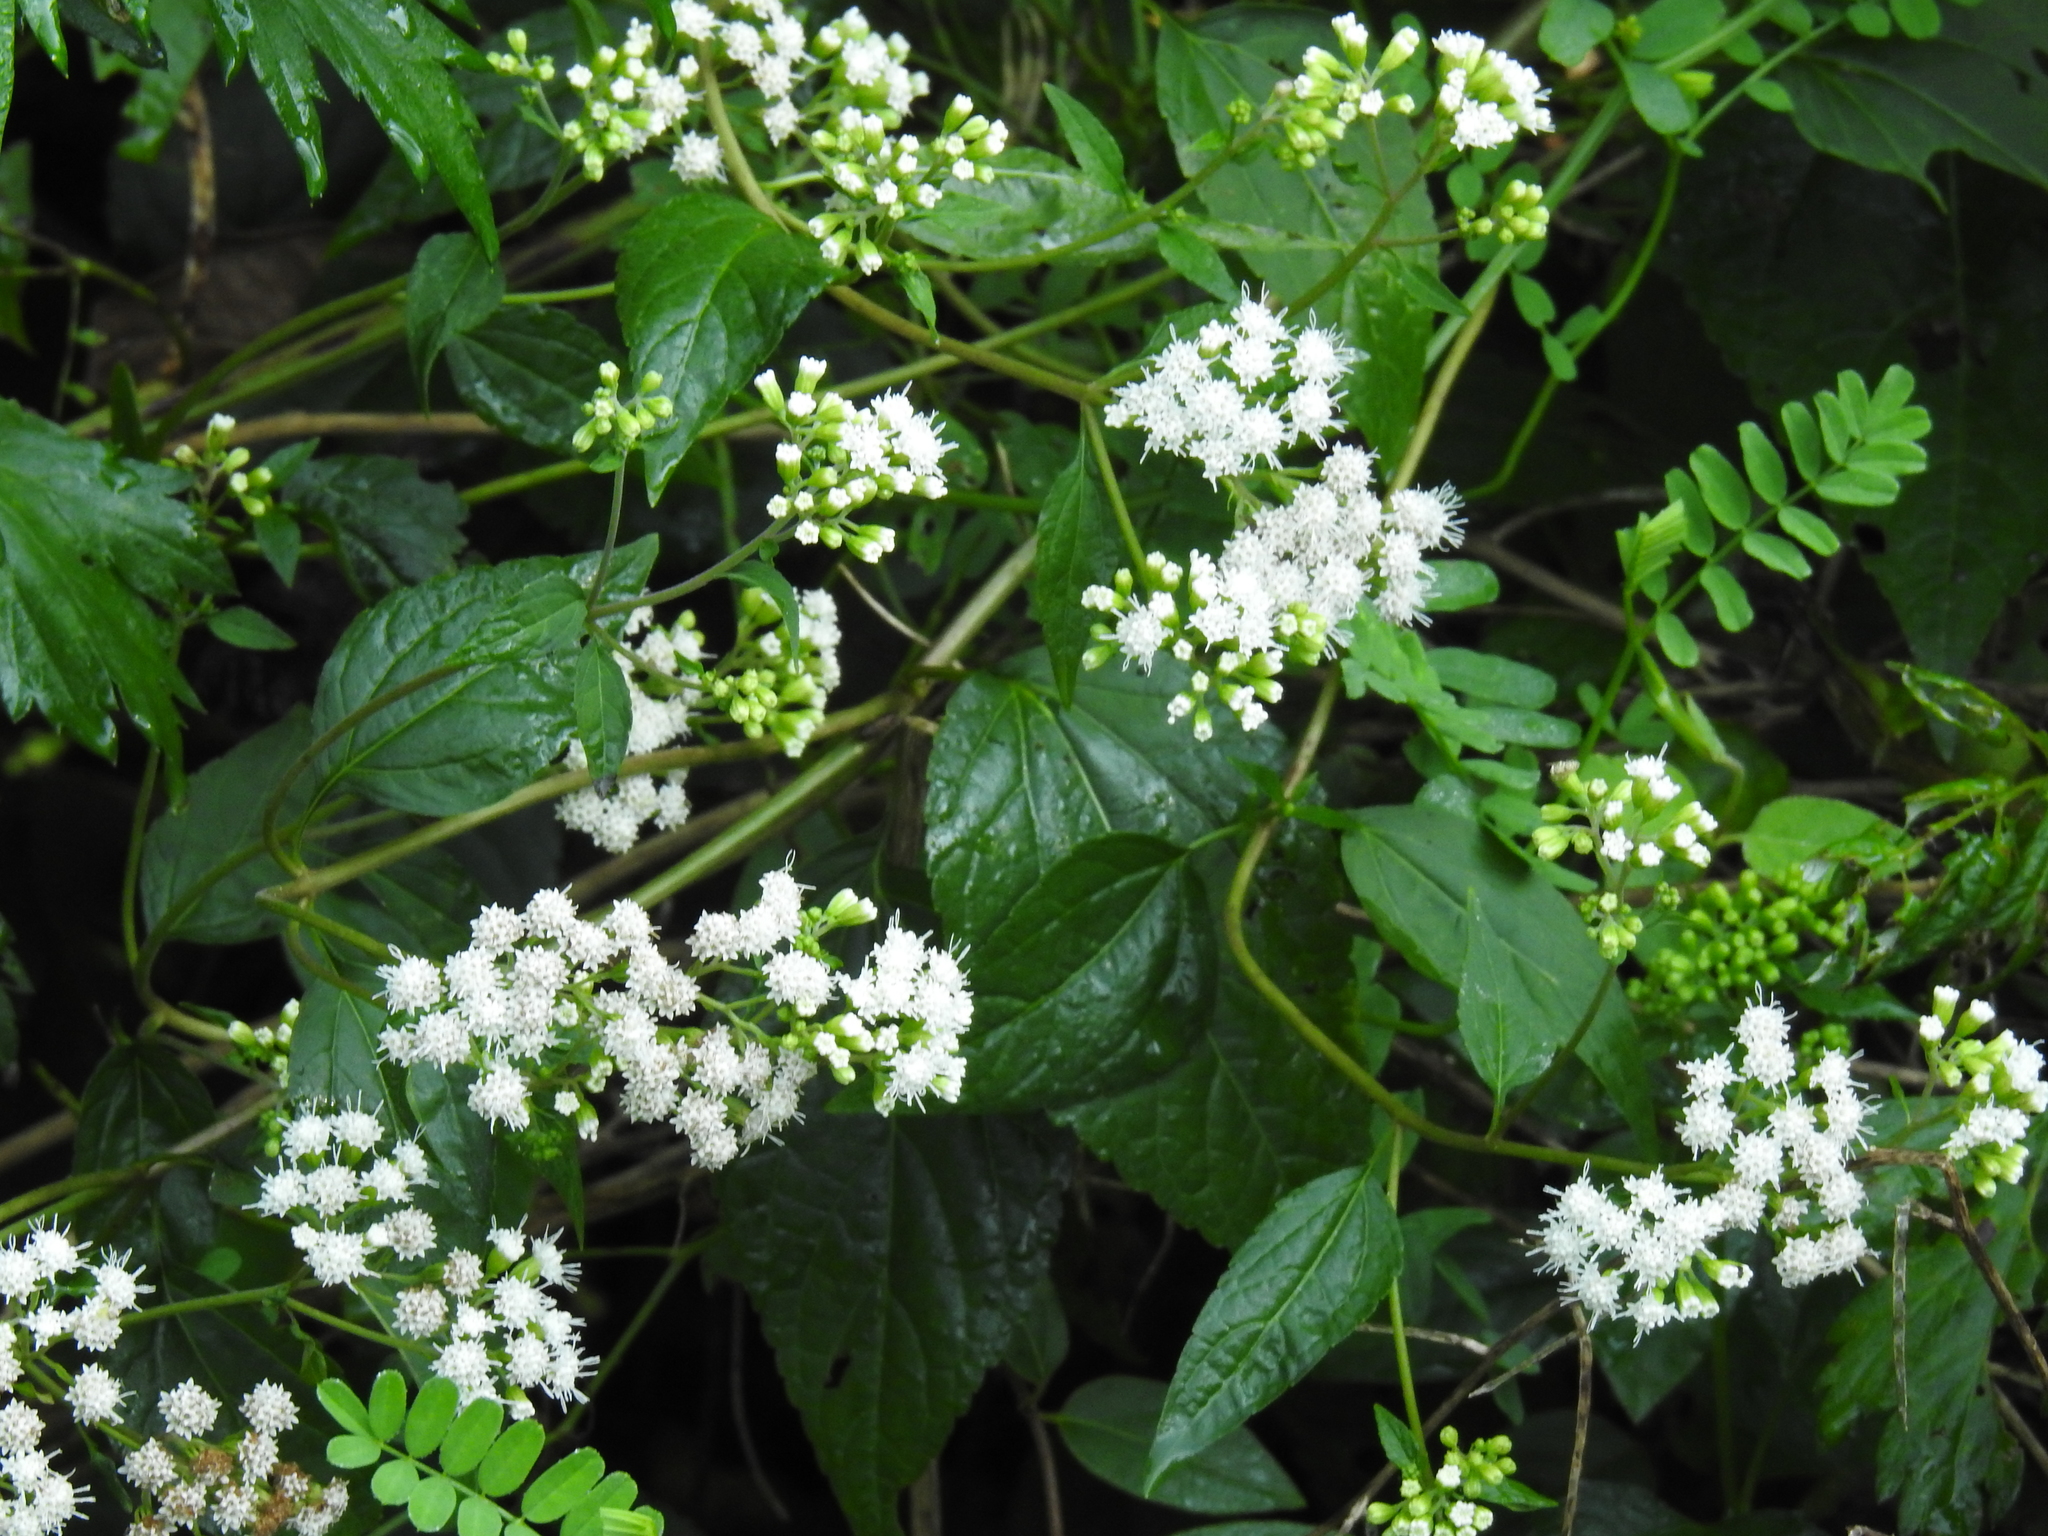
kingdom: Plantae
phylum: Tracheophyta
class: Magnoliopsida
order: Asterales
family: Asteraceae
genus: Ageratina
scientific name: Ageratina altissima
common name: White snakeroot
